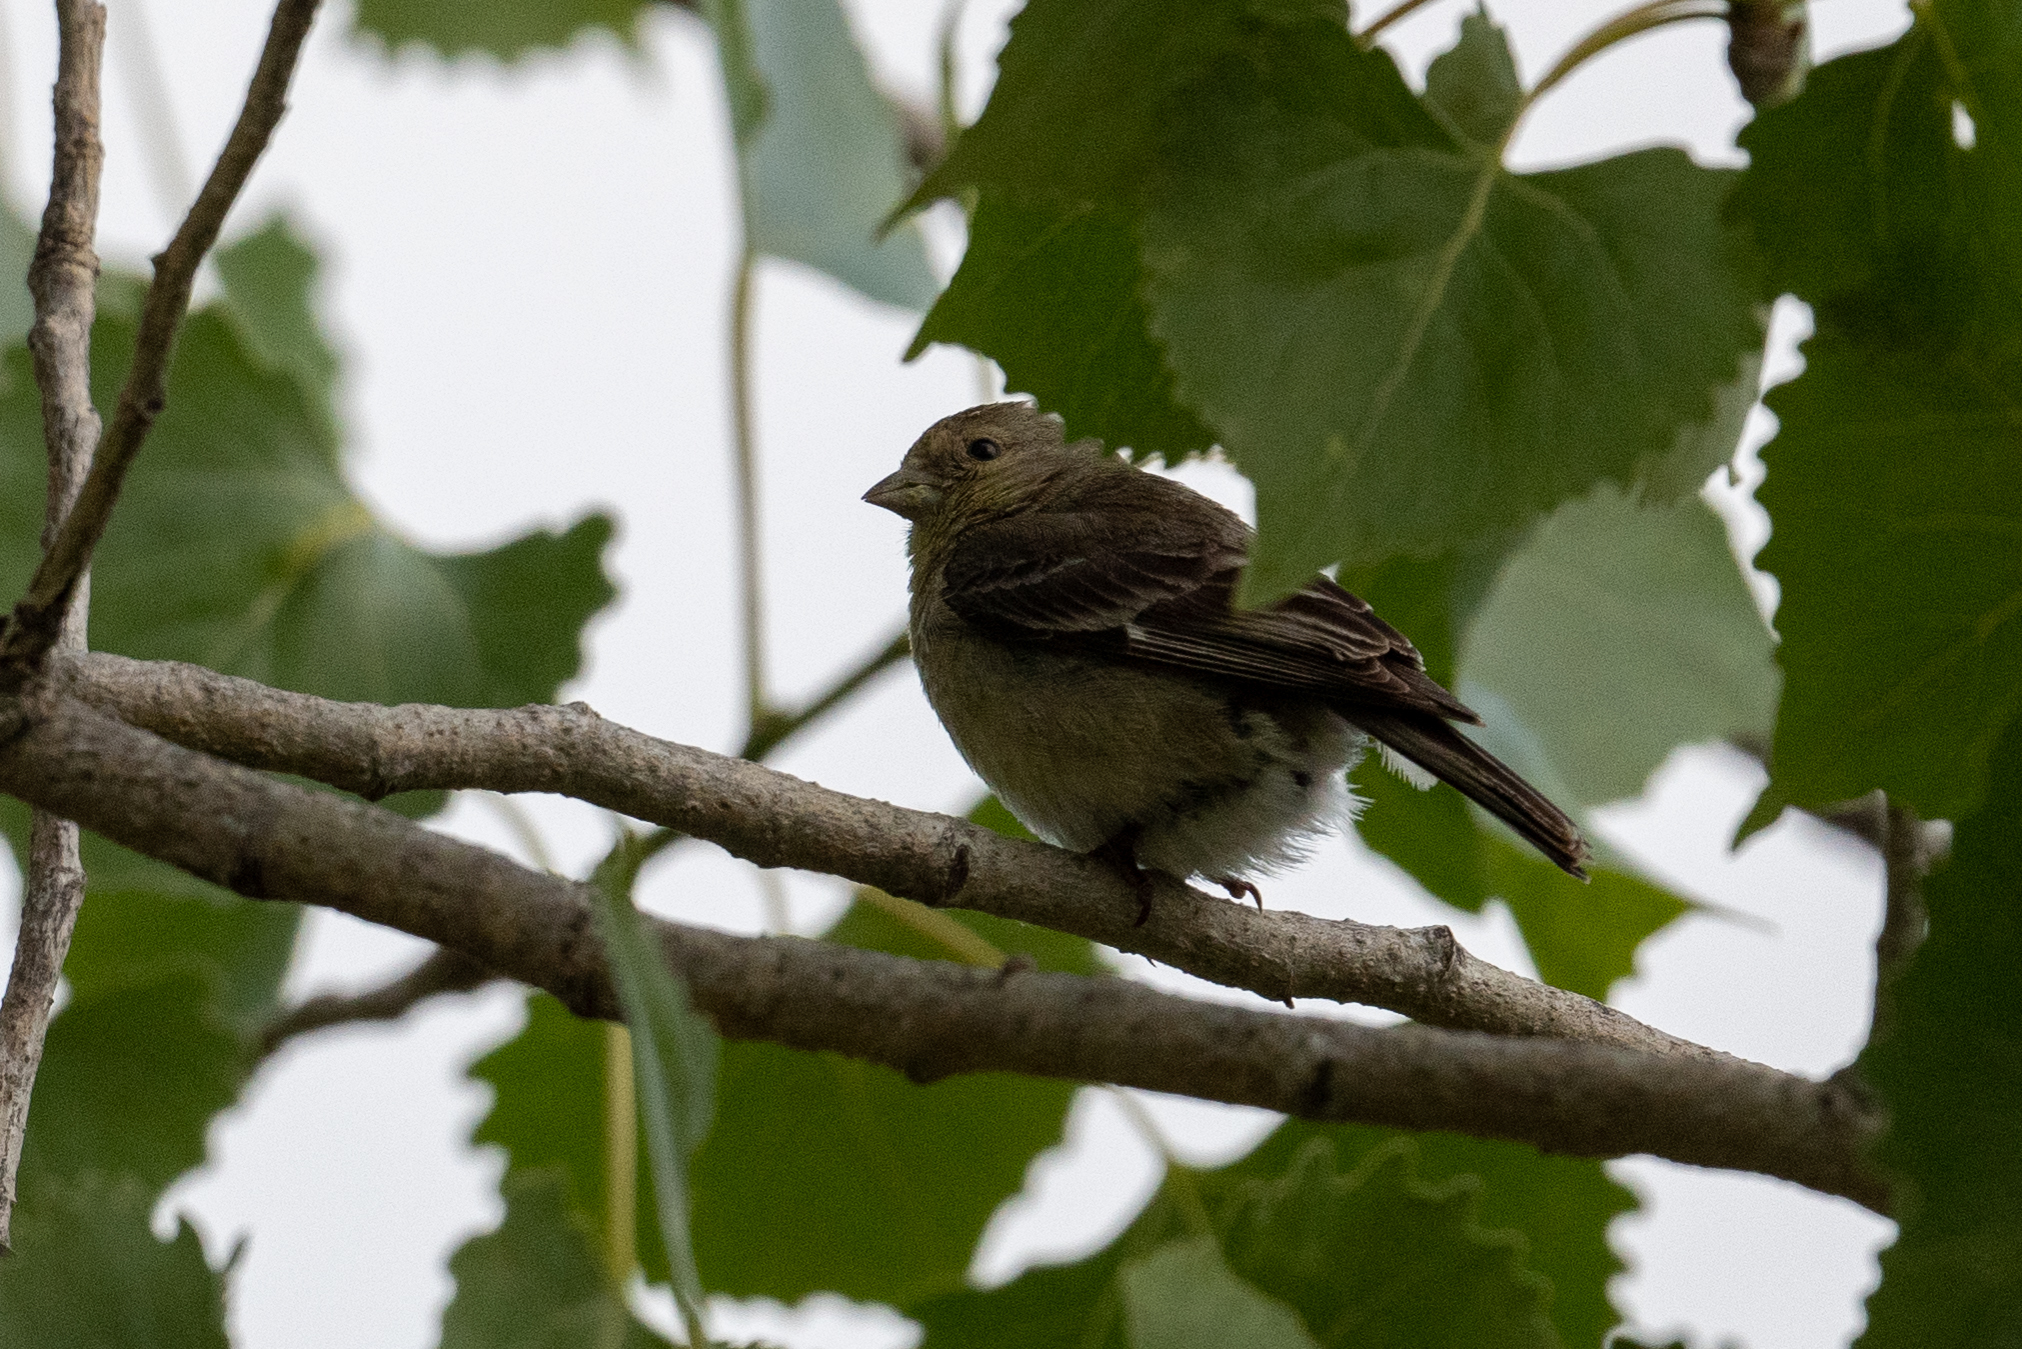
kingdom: Animalia
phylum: Chordata
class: Aves
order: Passeriformes
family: Fringillidae
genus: Spinus
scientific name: Spinus psaltria
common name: Lesser goldfinch
